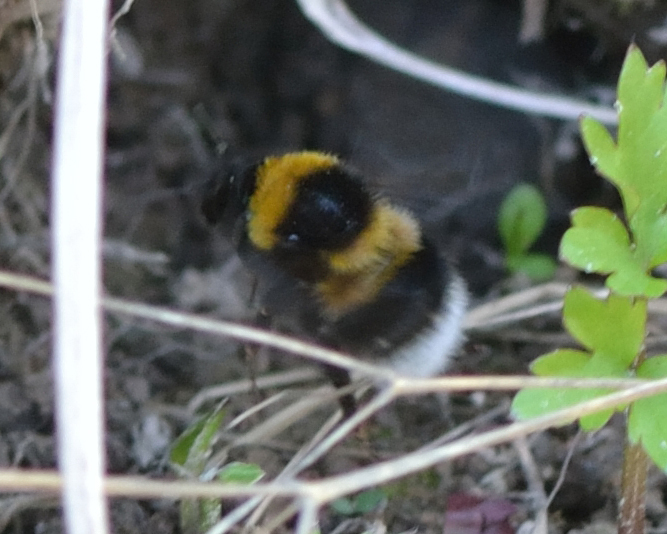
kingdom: Animalia
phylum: Arthropoda
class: Insecta
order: Hymenoptera
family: Apidae
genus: Bombus
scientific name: Bombus hortorum
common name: Garden bumblebee
